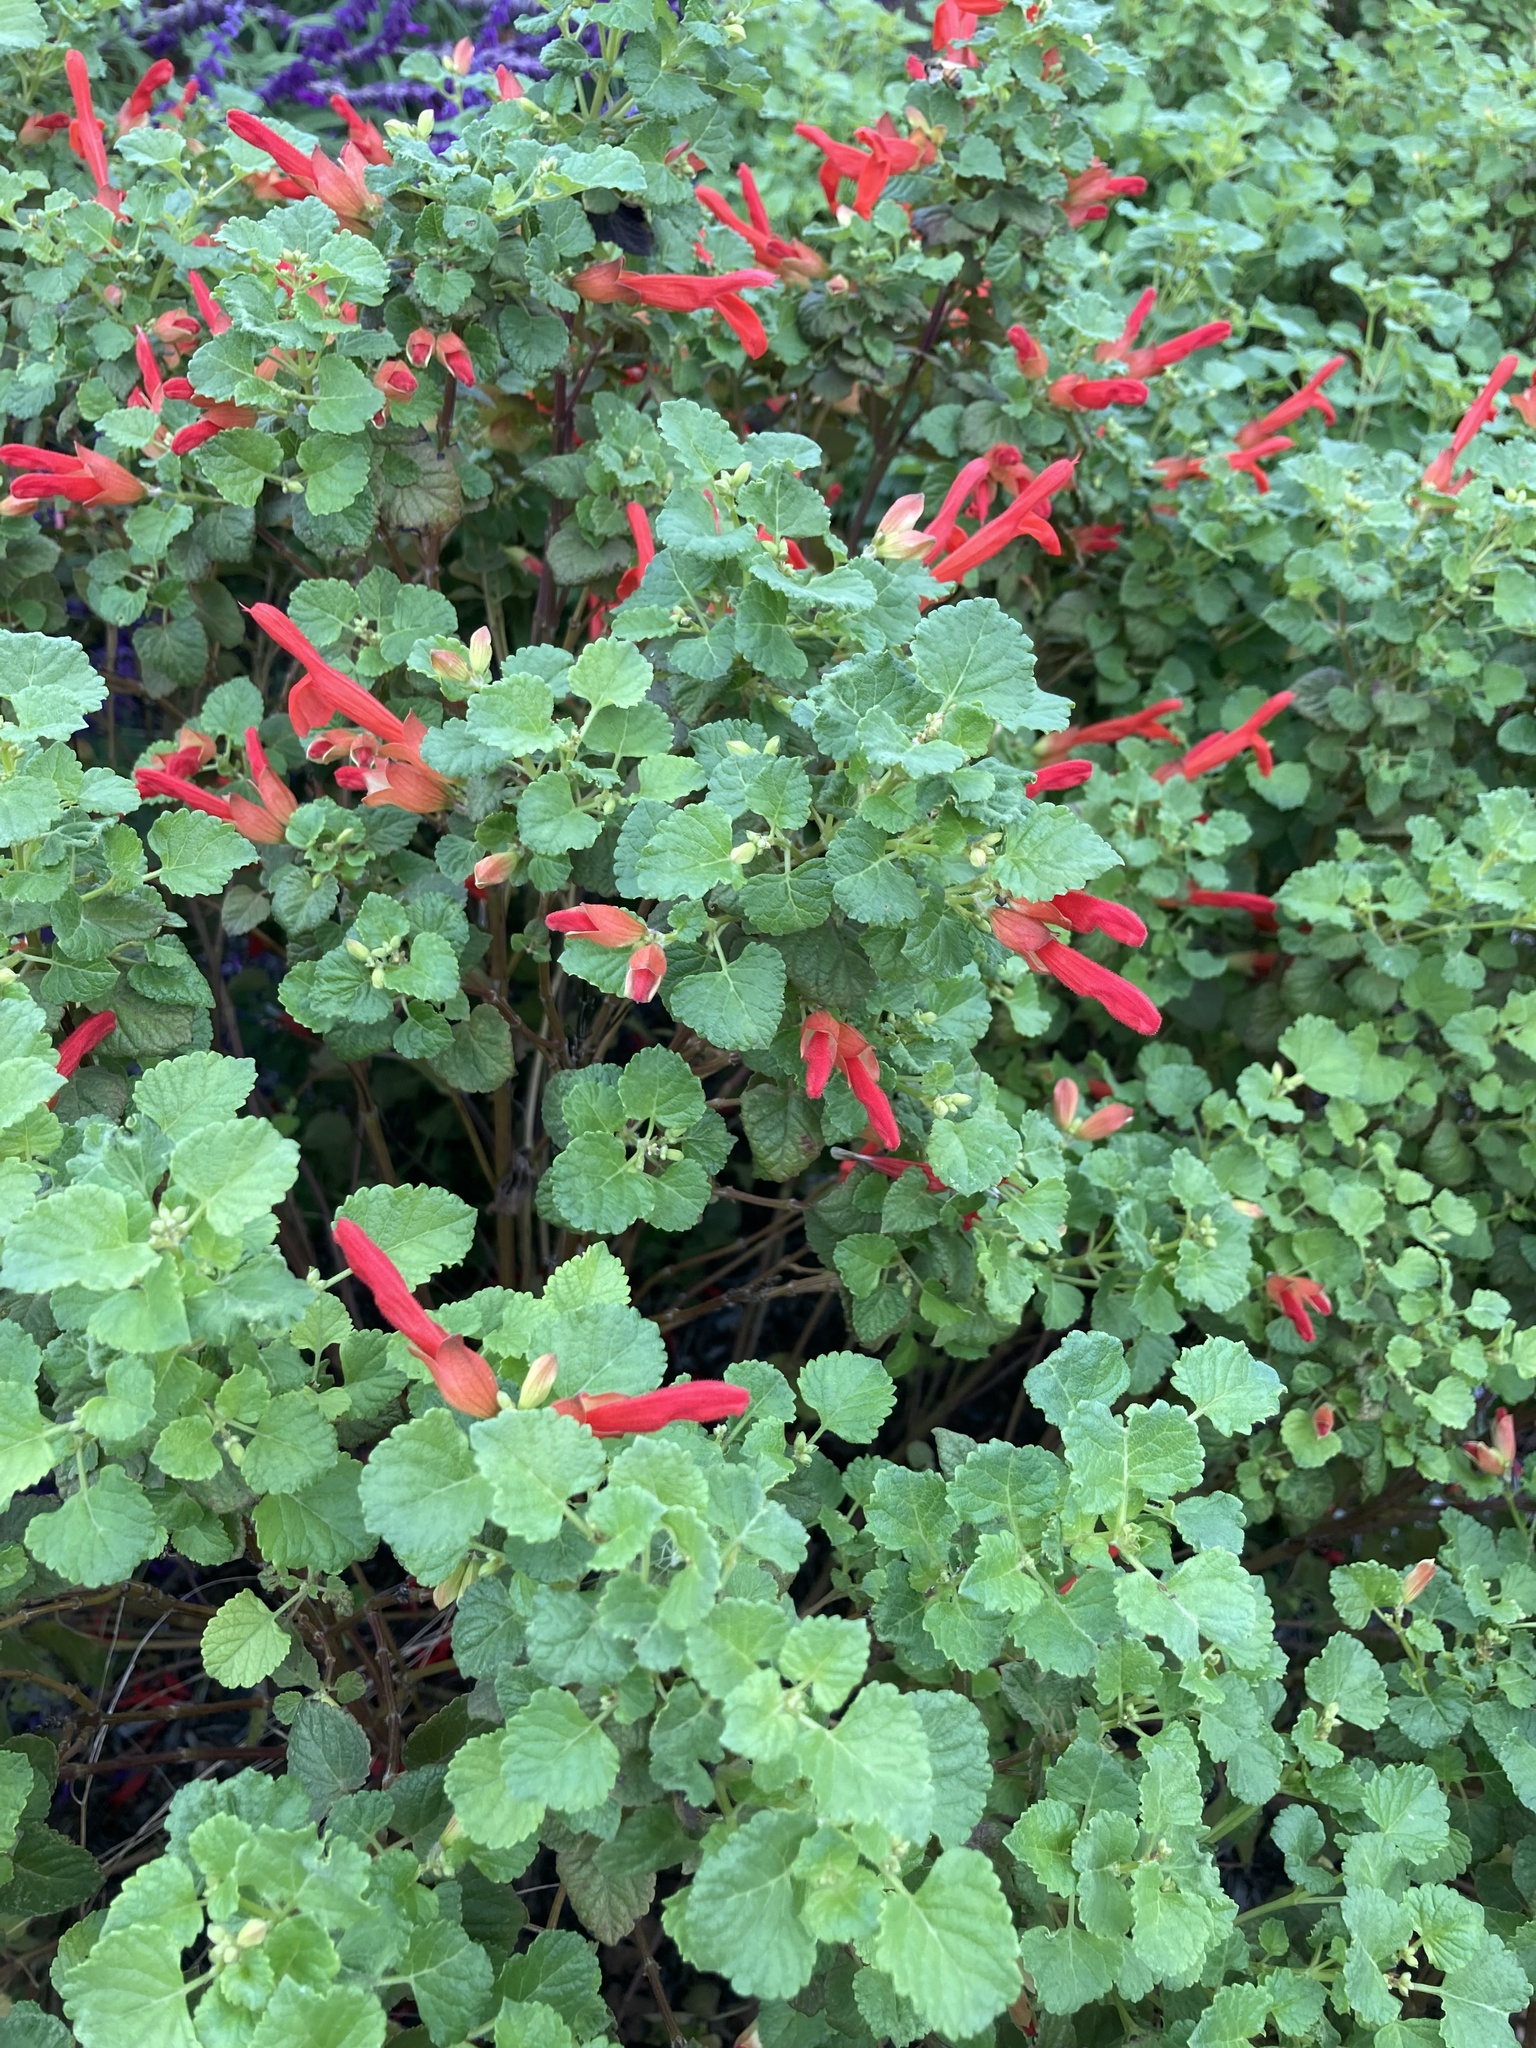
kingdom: Plantae
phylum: Tracheophyta
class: Magnoliopsida
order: Lamiales
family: Lamiaceae
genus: Salvia
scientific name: Salvia regla
